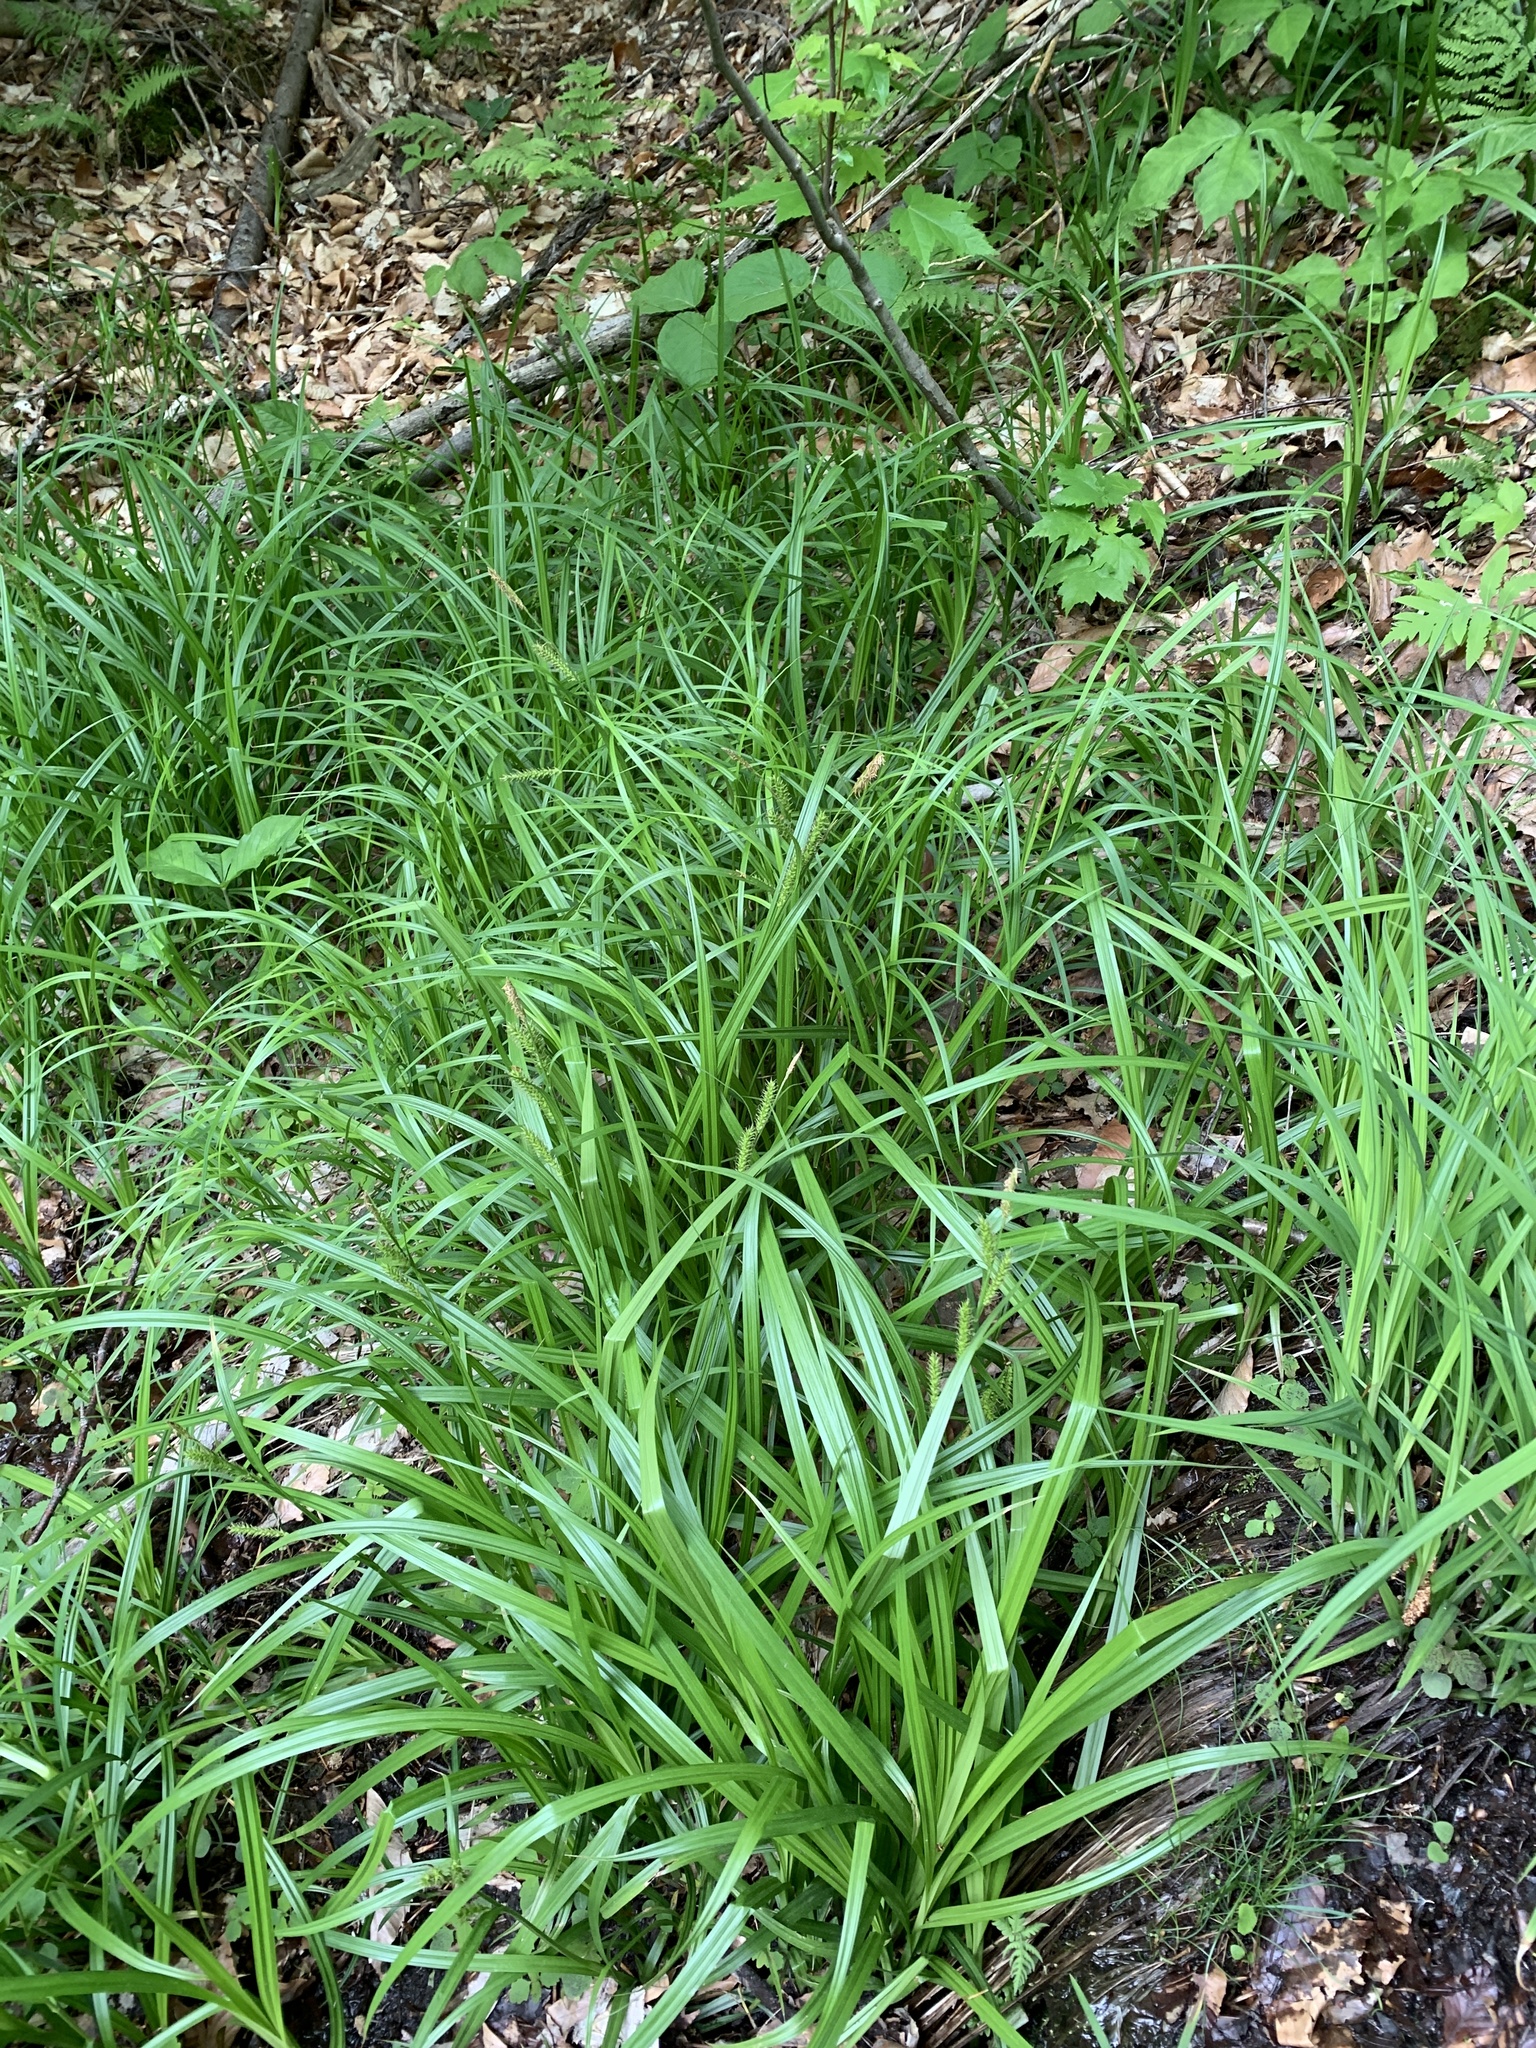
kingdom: Plantae
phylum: Tracheophyta
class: Liliopsida
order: Poales
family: Cyperaceae
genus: Carex
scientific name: Carex scabrata
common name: Eastern rough sedge
